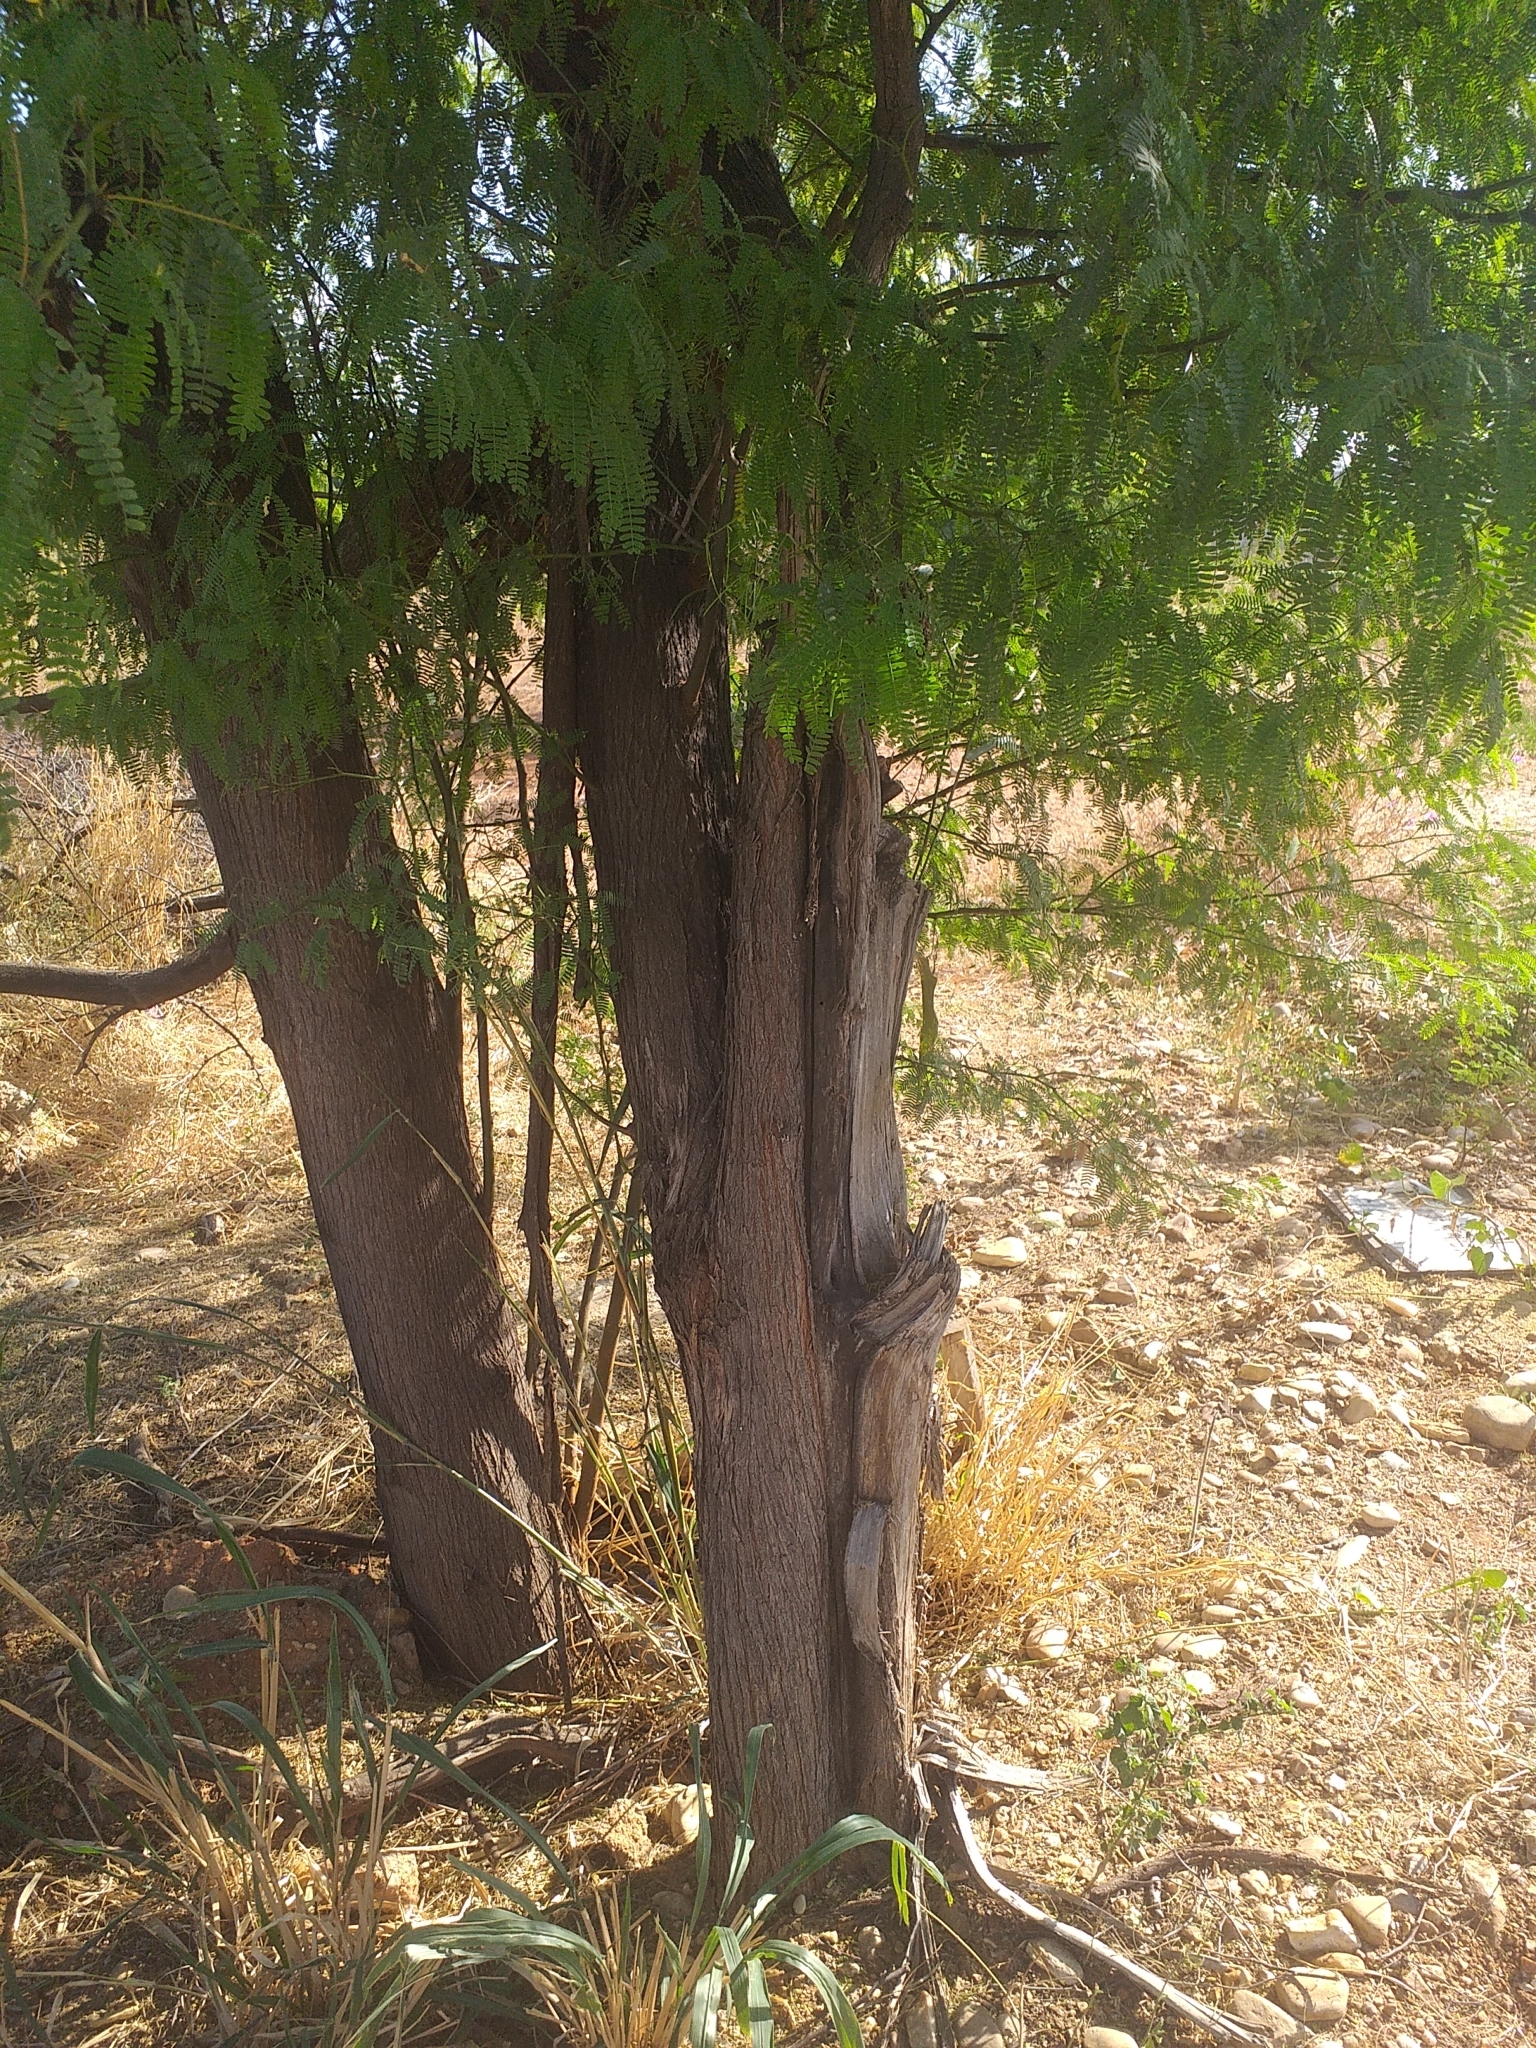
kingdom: Plantae
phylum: Tracheophyta
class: Magnoliopsida
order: Fabales
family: Fabaceae
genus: Prosopis
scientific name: Prosopis
